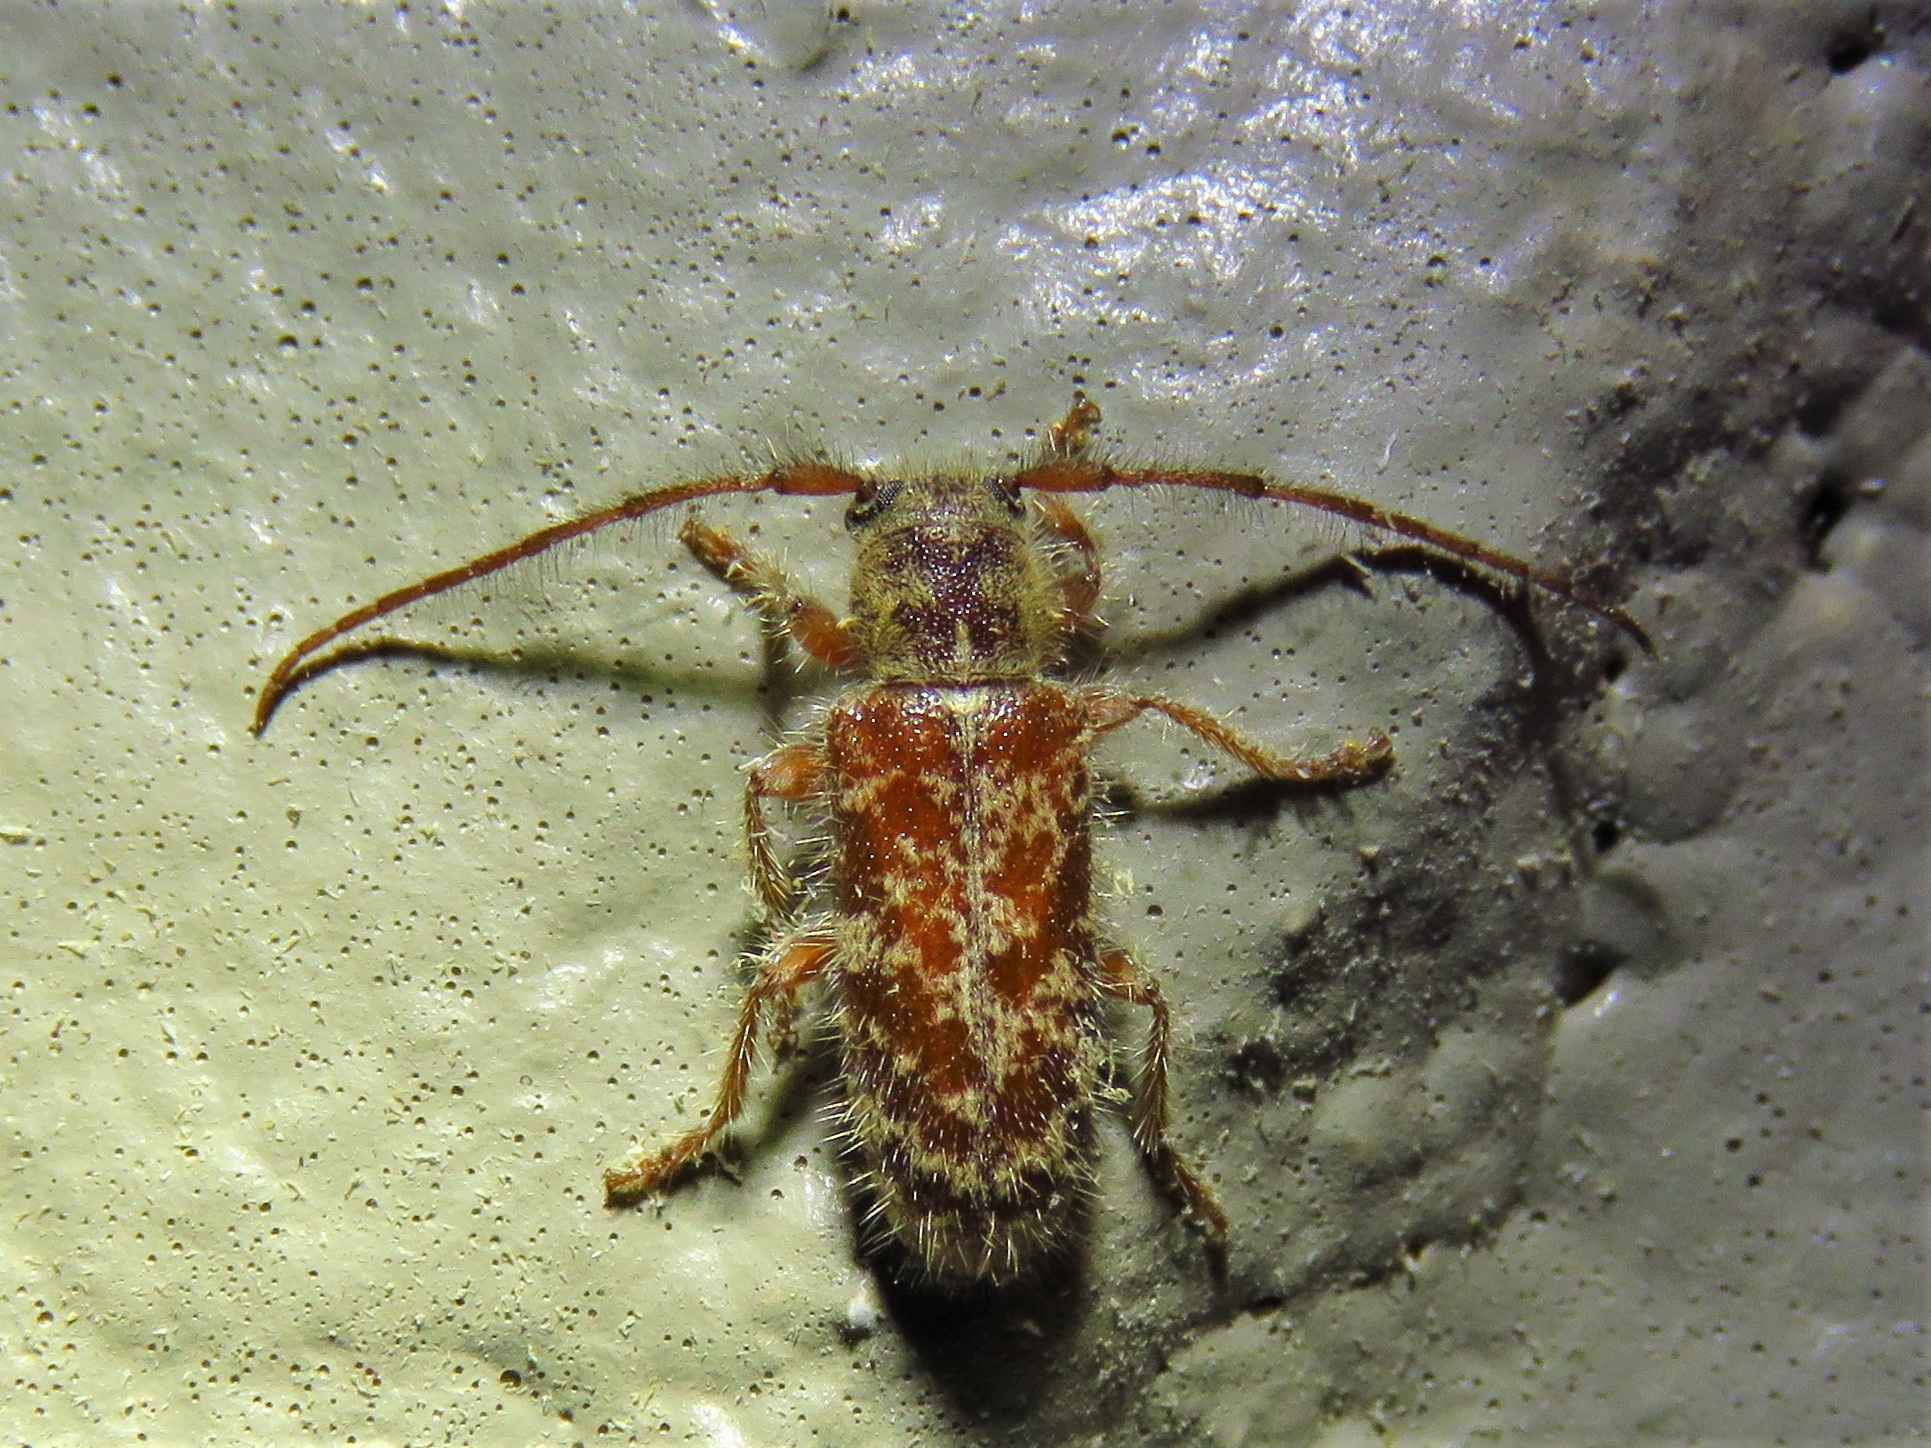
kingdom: Animalia
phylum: Arthropoda
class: Insecta
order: Coleoptera
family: Cerambycidae
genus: Eupogonius
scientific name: Eupogonius pauper
